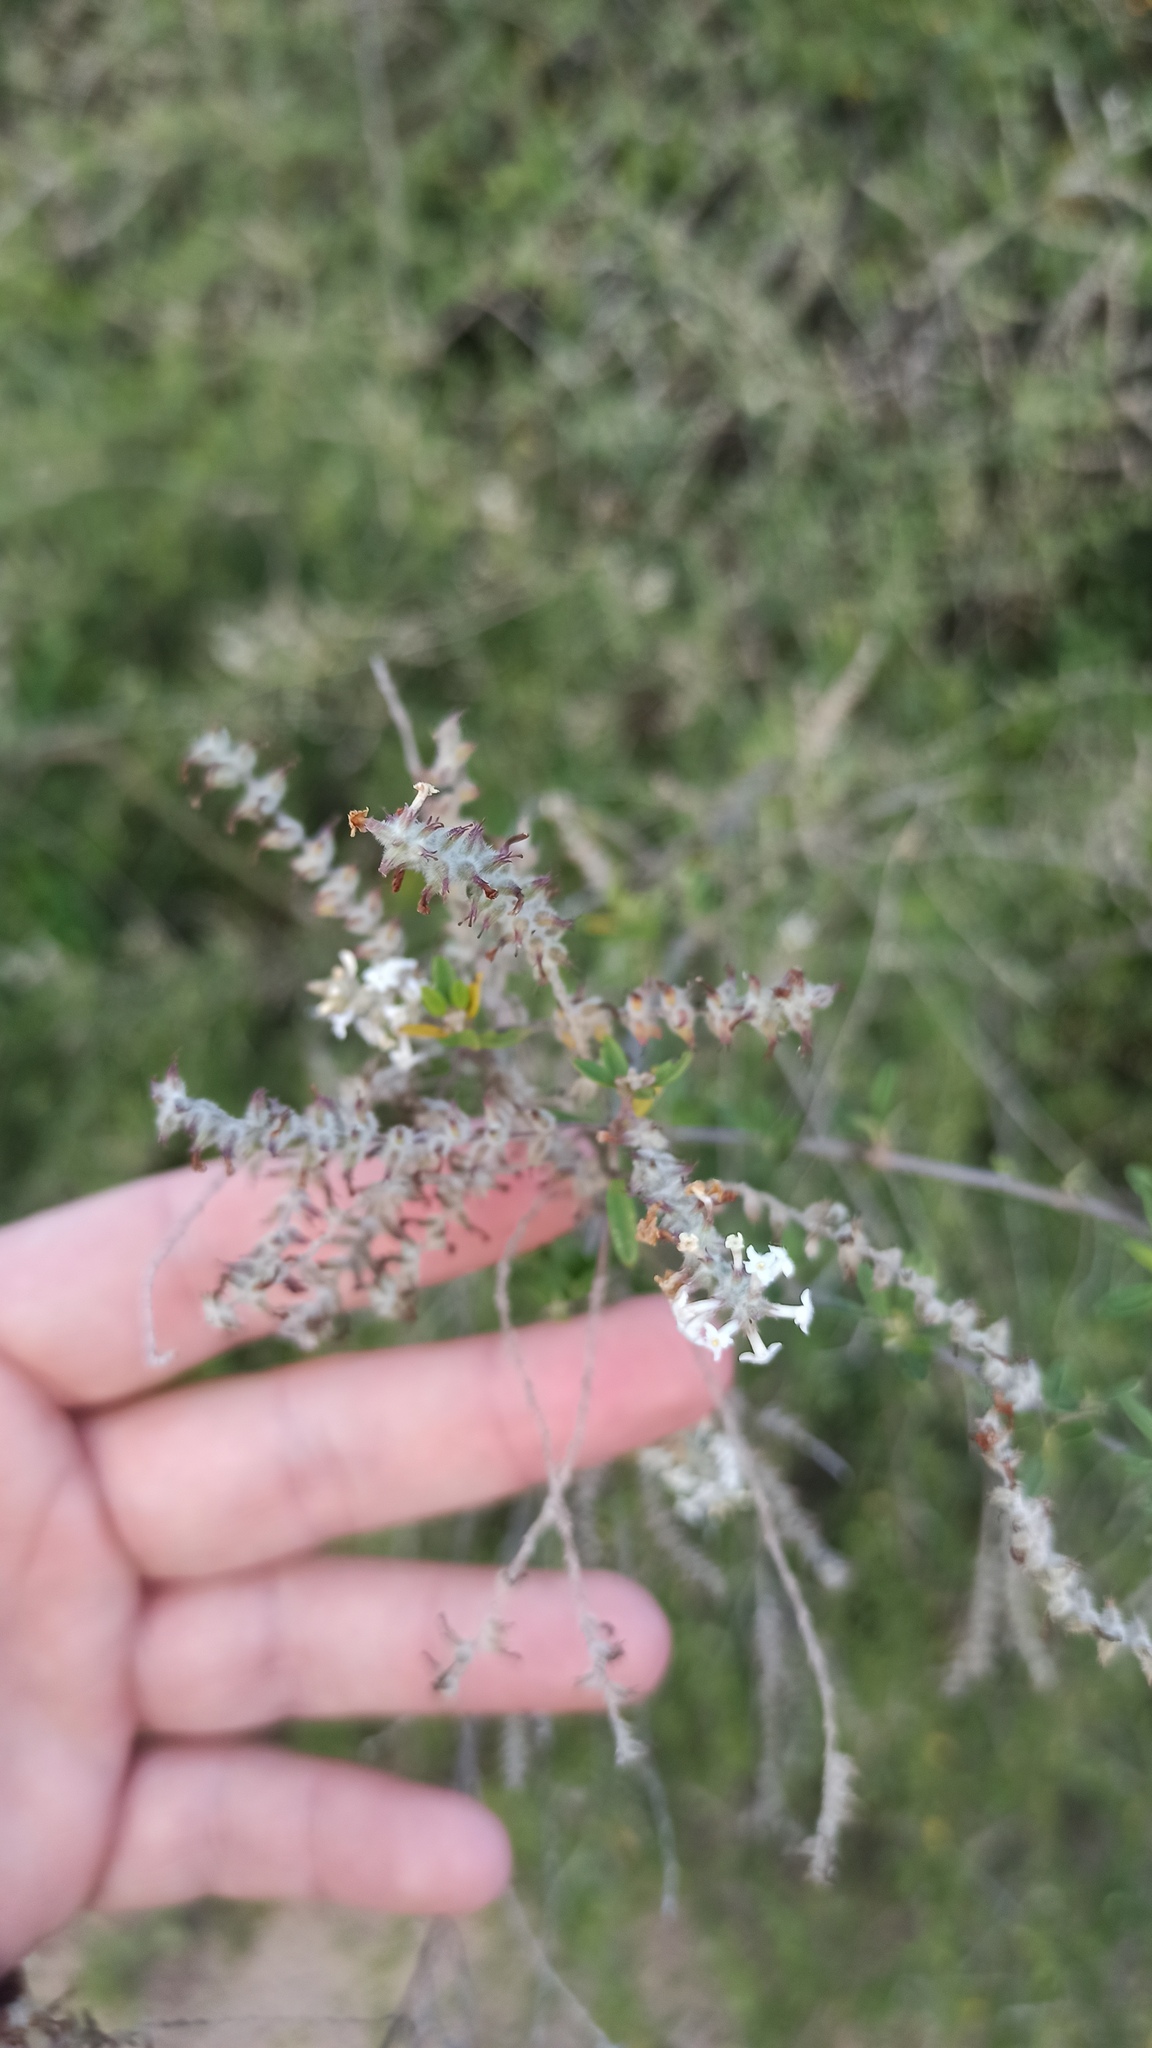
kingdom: Plantae
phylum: Tracheophyta
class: Magnoliopsida
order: Lamiales
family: Verbenaceae
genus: Aloysia
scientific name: Aloysia gratissima
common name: Common bee-brush
